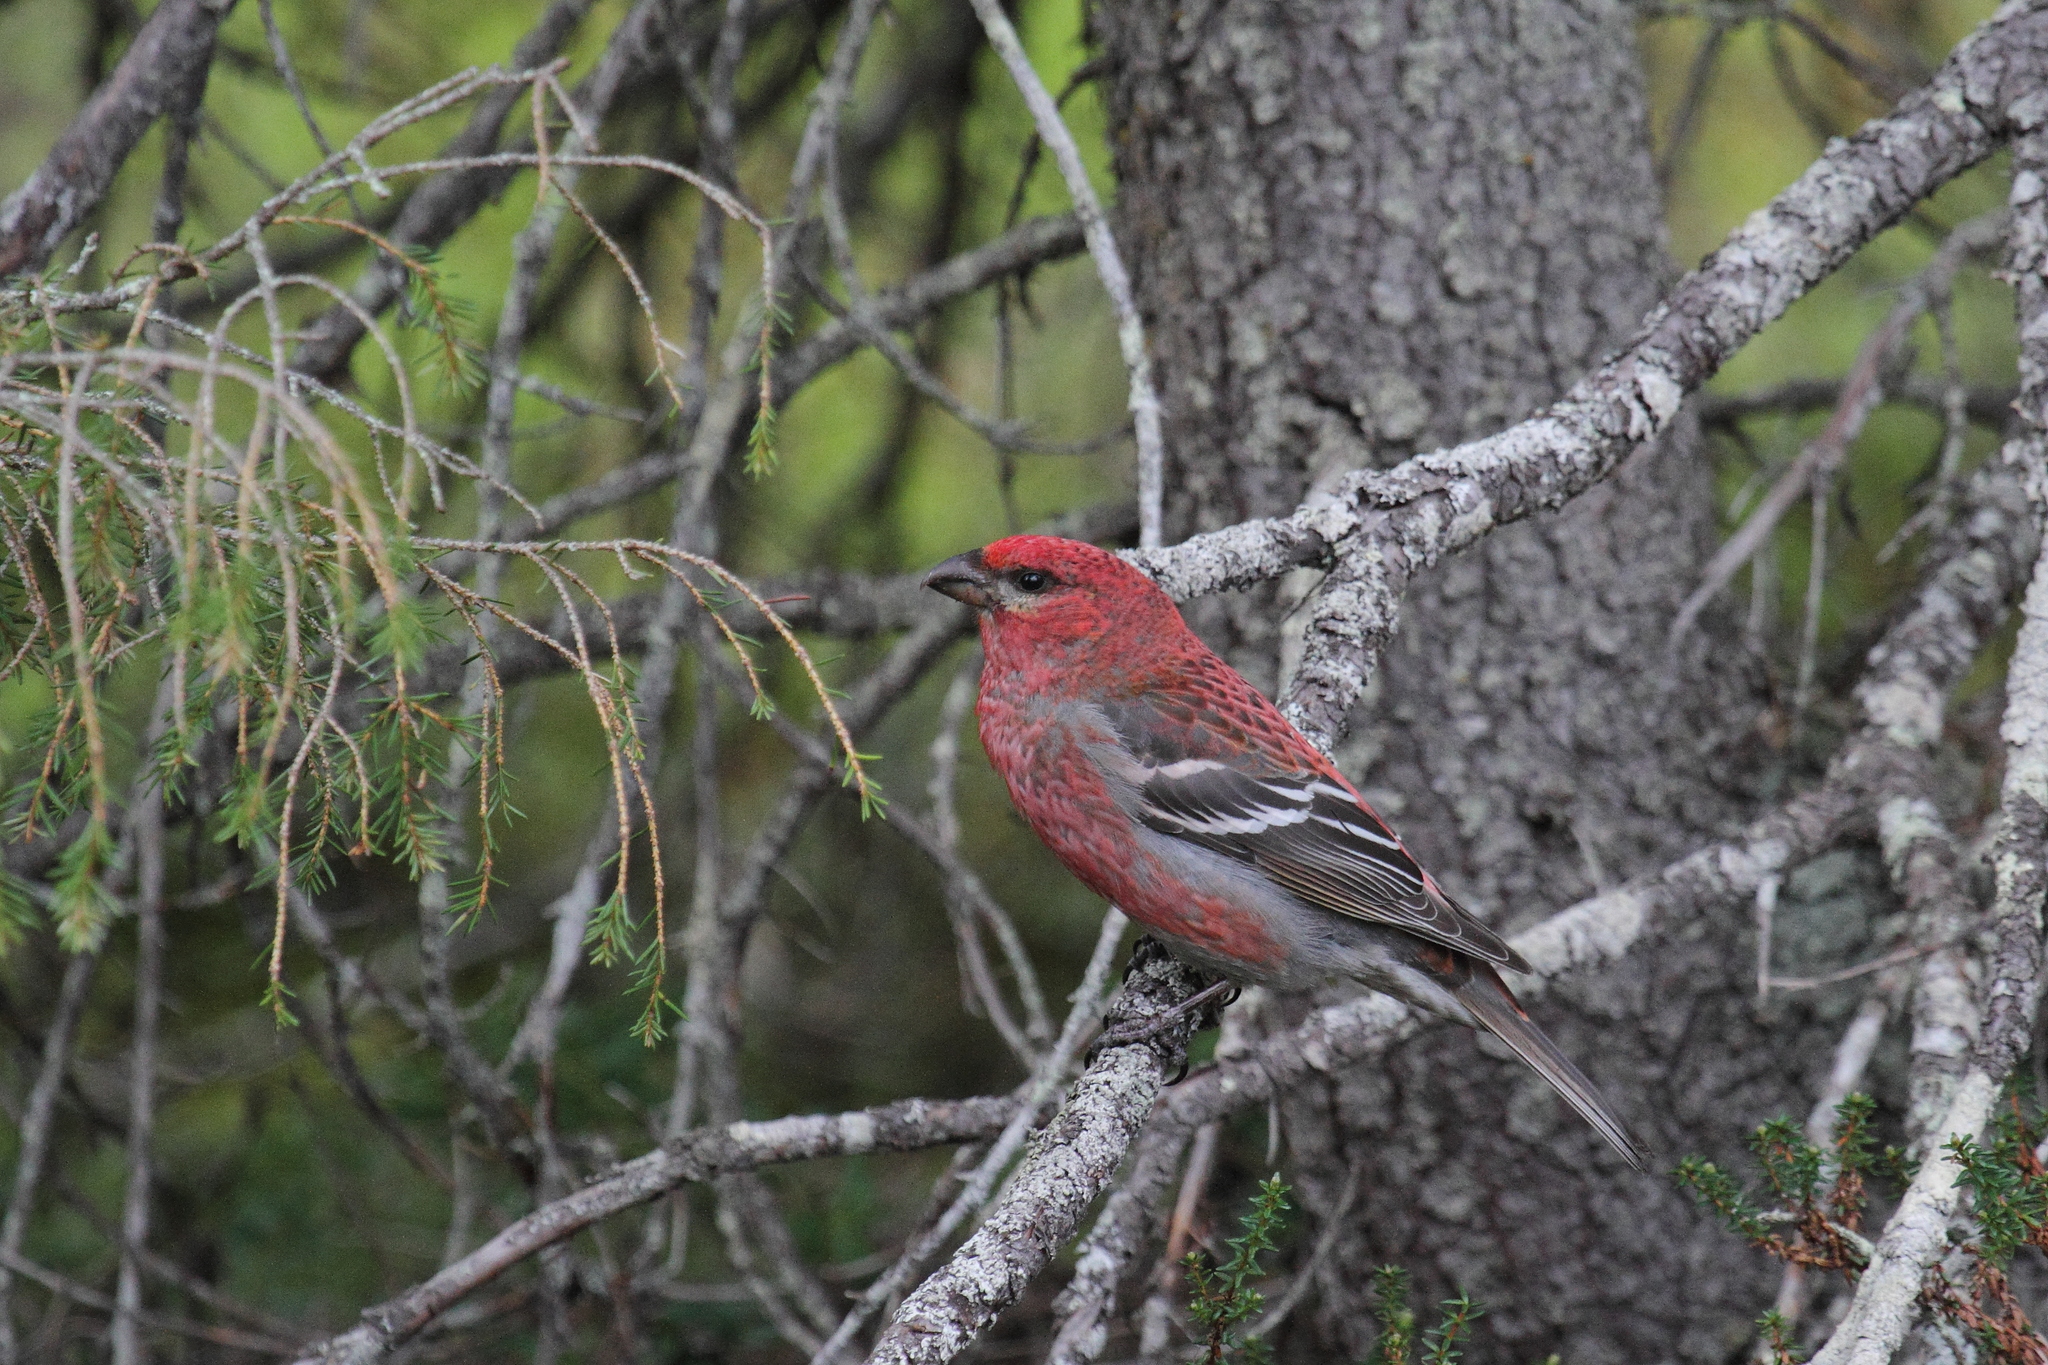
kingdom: Animalia
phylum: Chordata
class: Aves
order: Passeriformes
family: Fringillidae
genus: Pinicola
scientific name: Pinicola enucleator
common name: Pine grosbeak
